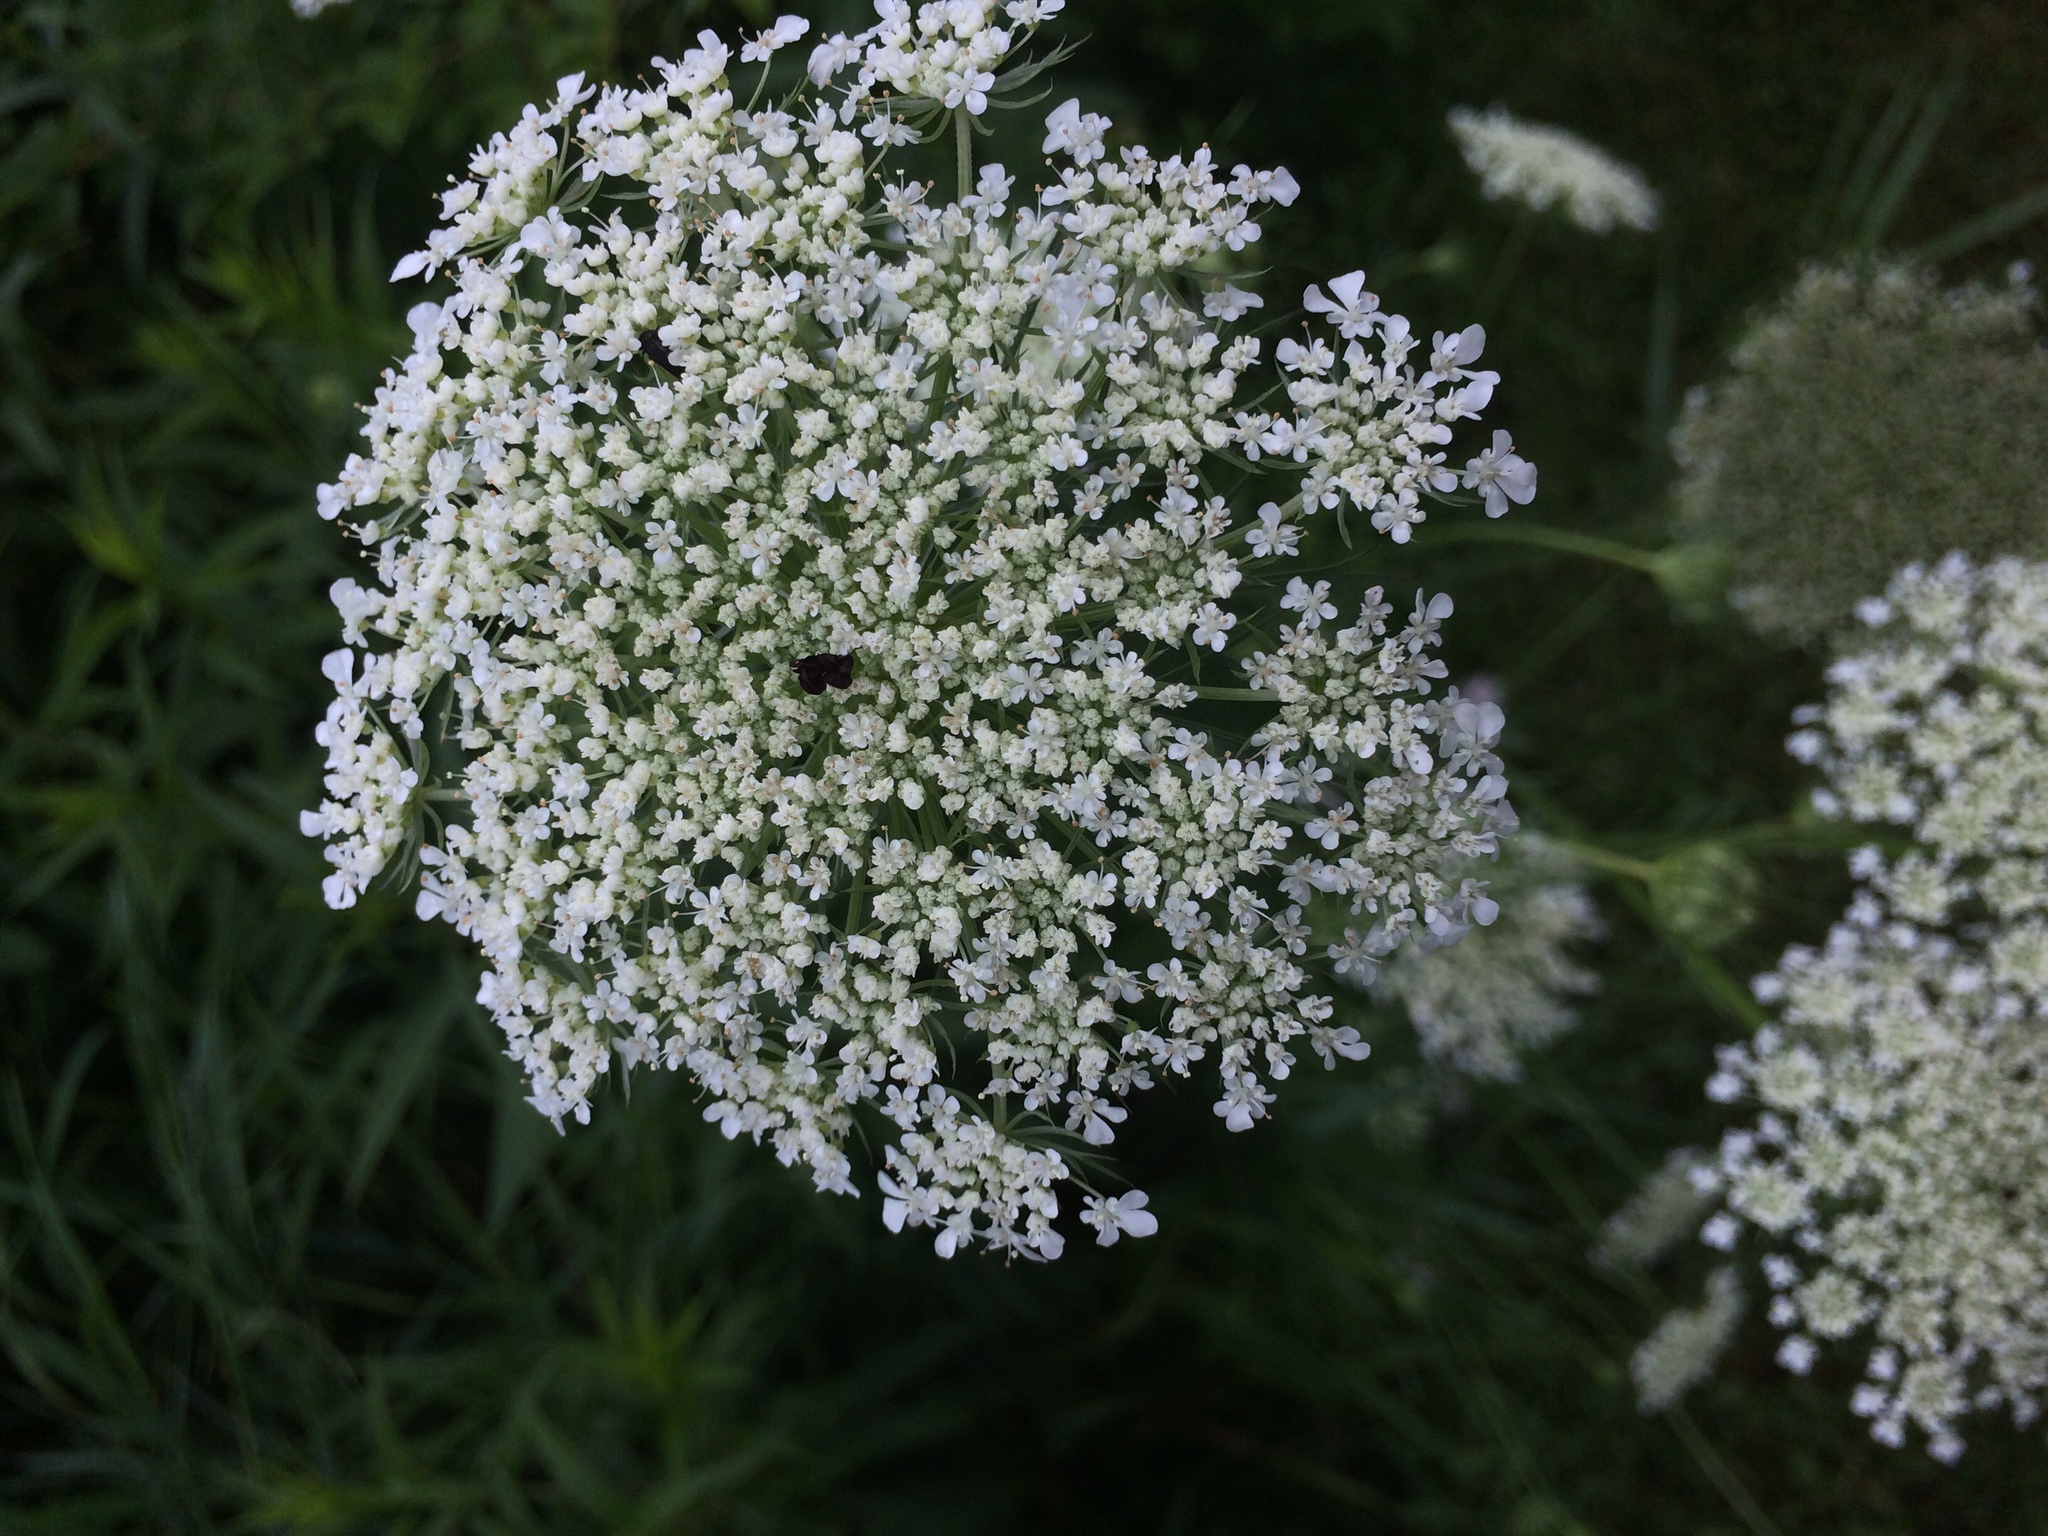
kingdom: Plantae
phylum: Tracheophyta
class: Magnoliopsida
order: Apiales
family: Apiaceae
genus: Daucus
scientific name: Daucus carota
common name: Wild carrot
